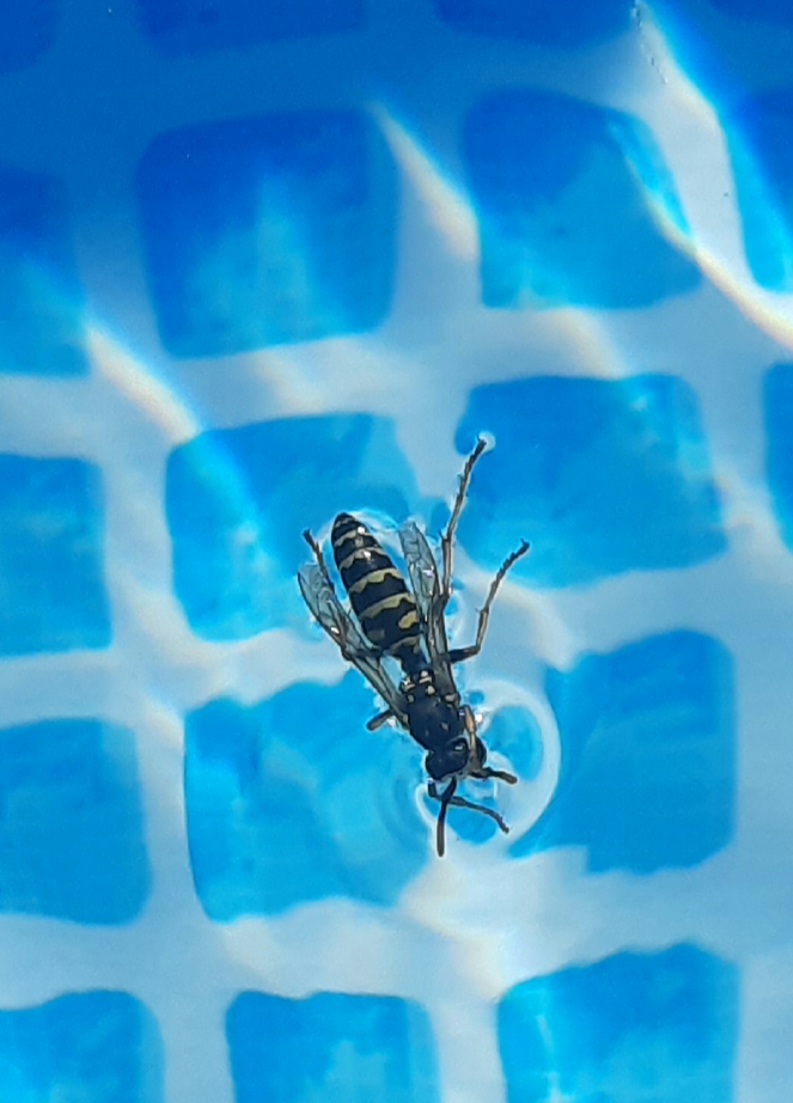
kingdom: Animalia
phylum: Arthropoda
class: Insecta
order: Hymenoptera
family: Eumenidae
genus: Polistes
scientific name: Polistes dominula
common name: Paper wasp
